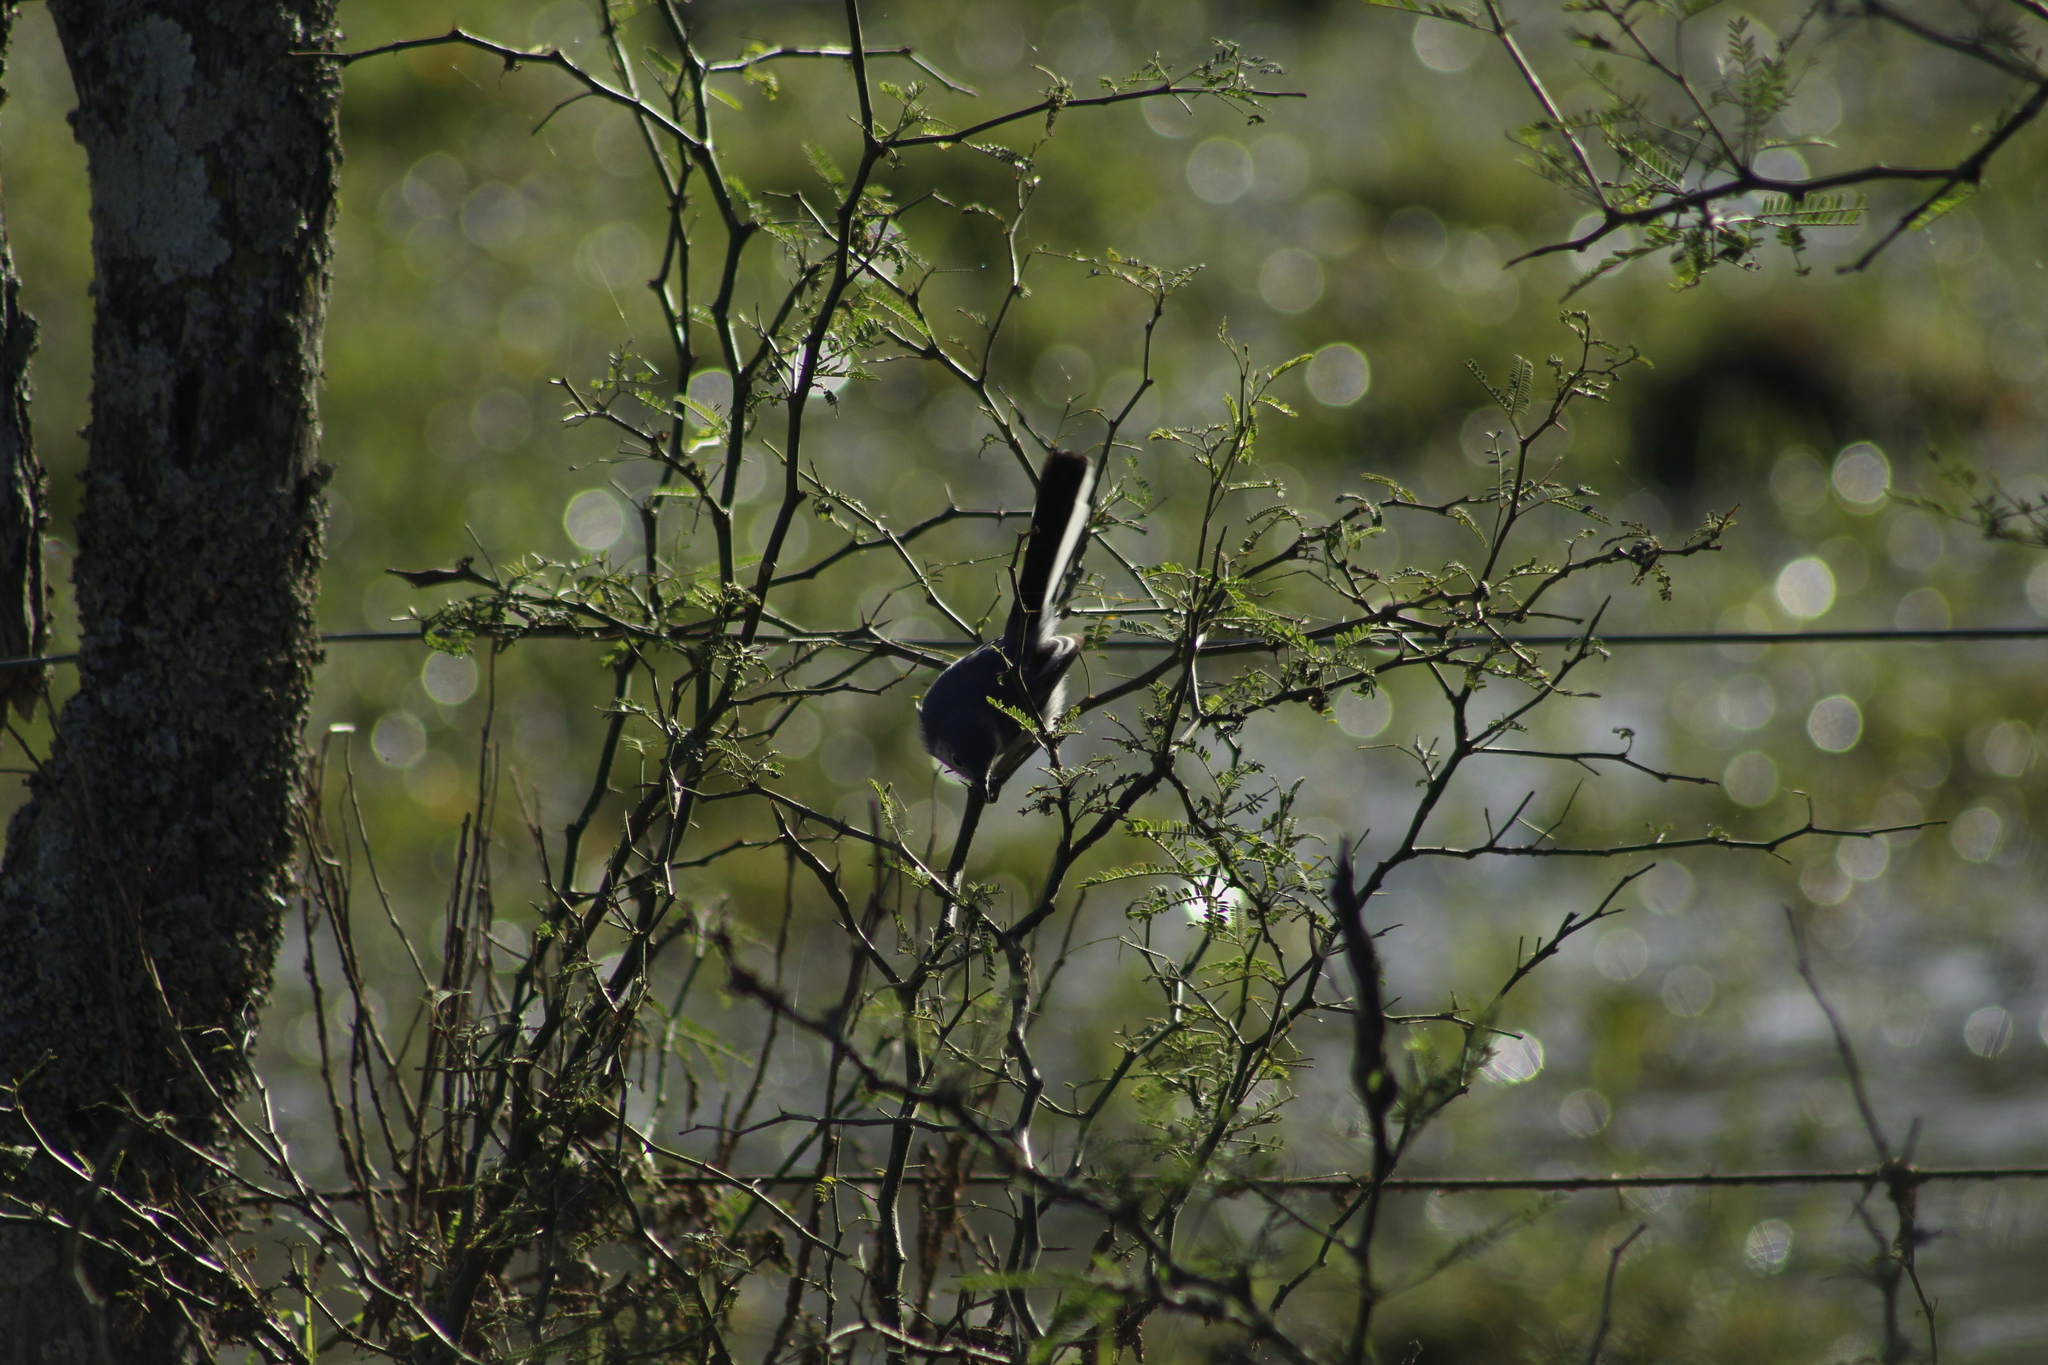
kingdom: Animalia
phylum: Chordata
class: Aves
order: Passeriformes
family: Polioptilidae
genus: Polioptila
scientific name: Polioptila dumicola
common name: Masked gnatcatcher
